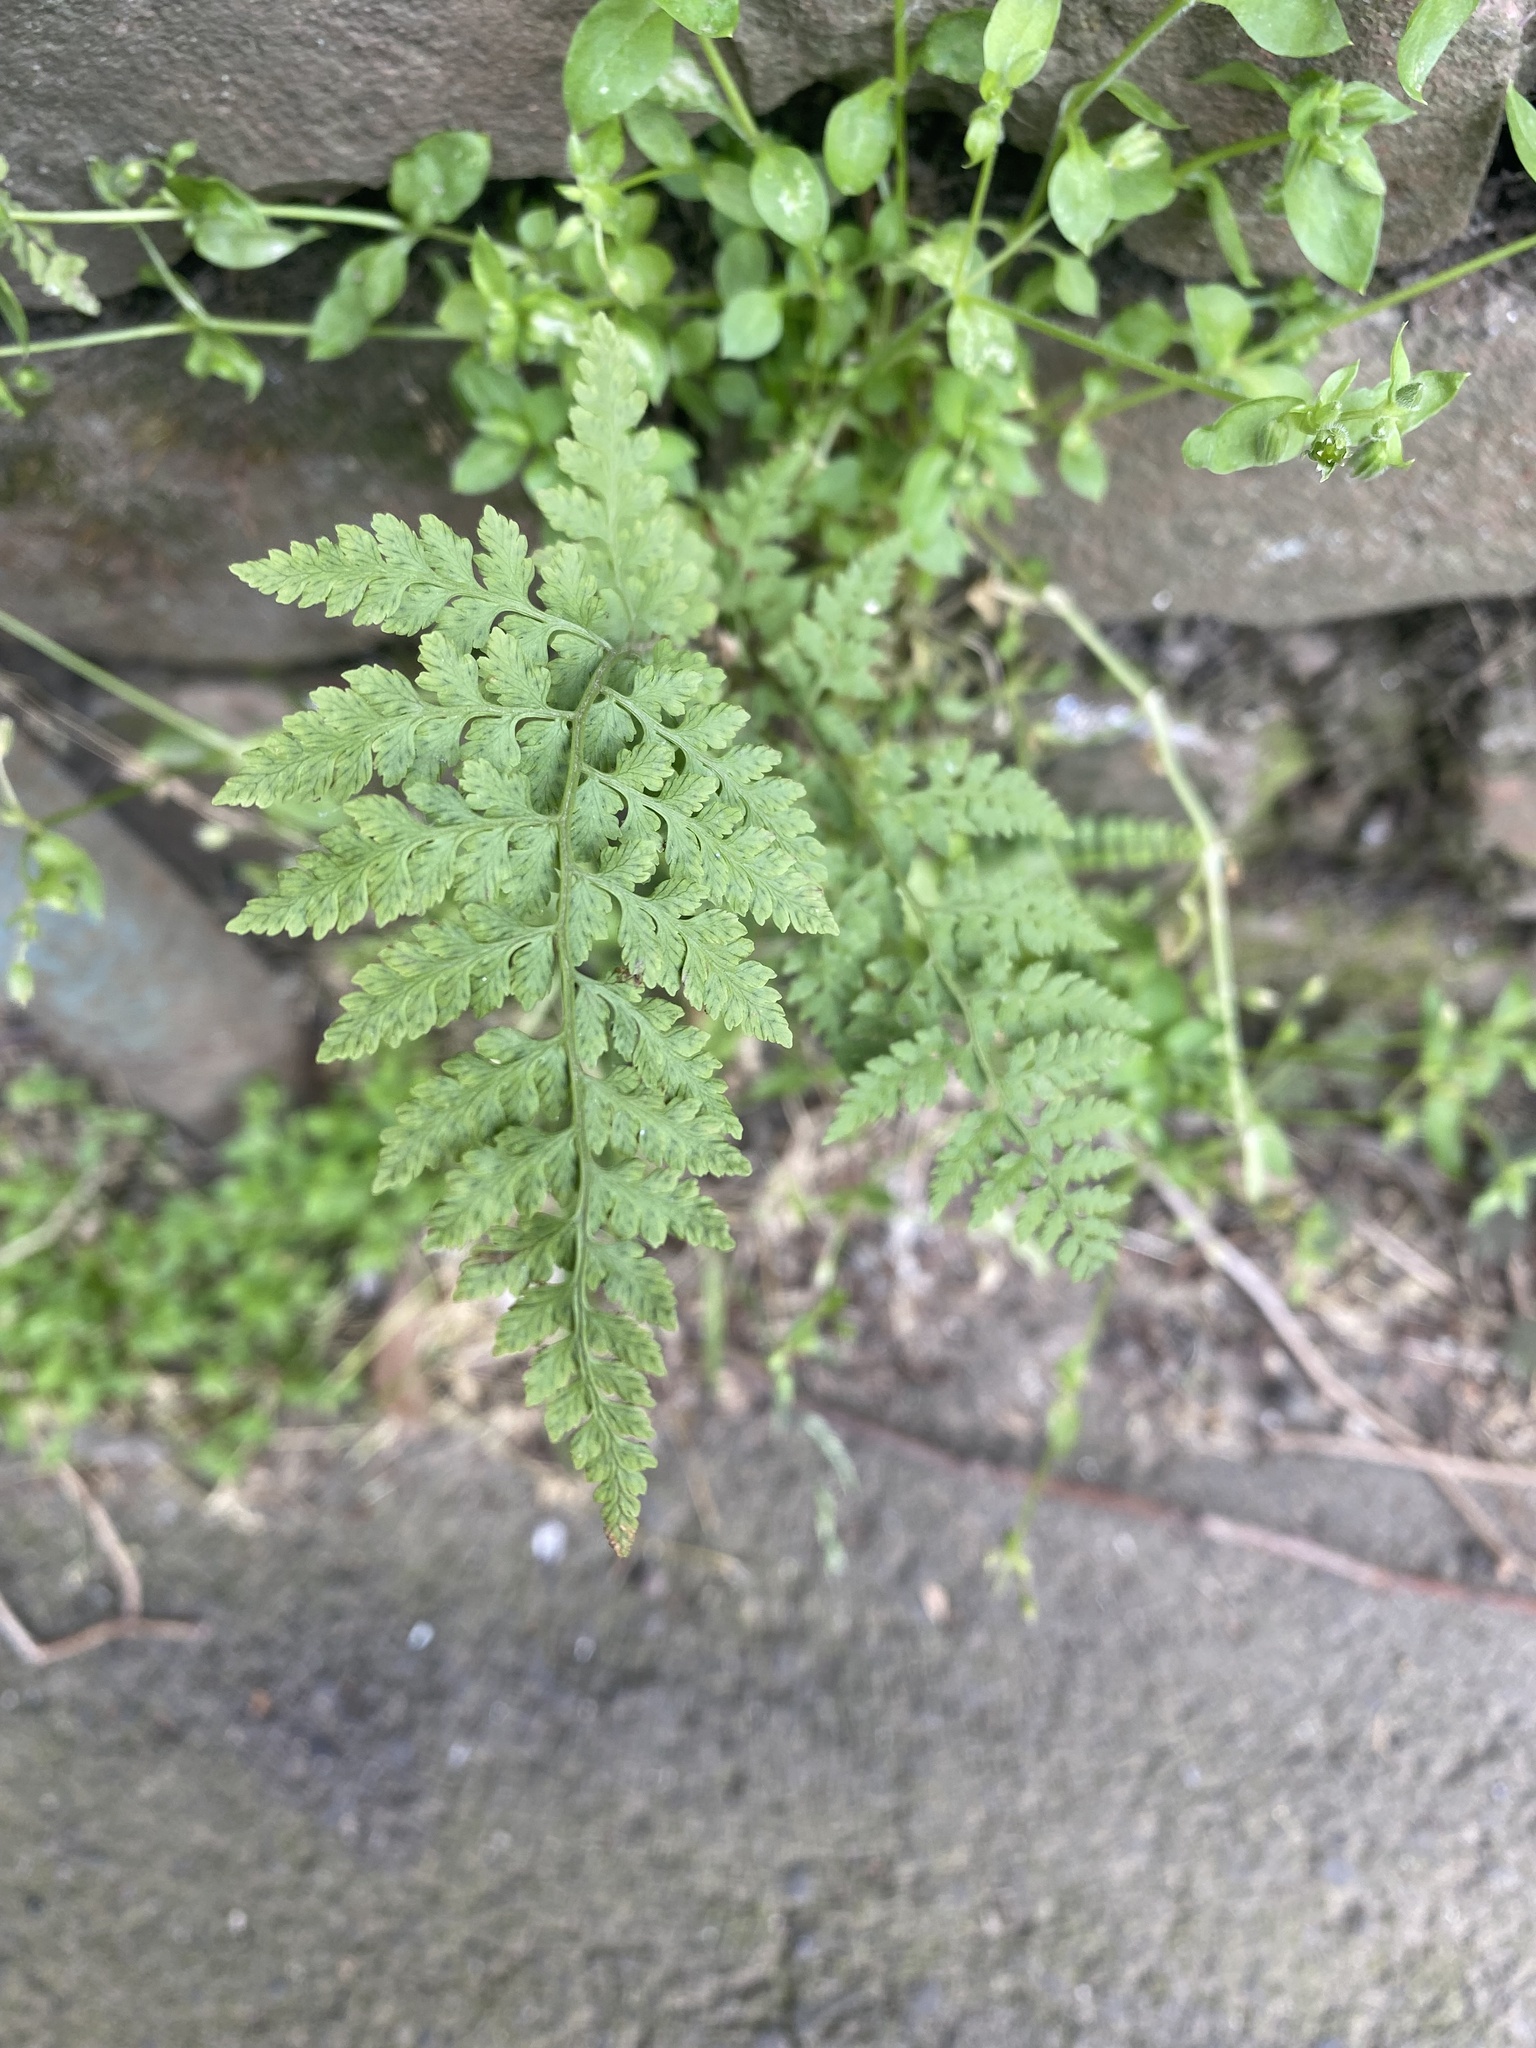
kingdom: Plantae
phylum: Tracheophyta
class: Polypodiopsida
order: Polypodiales
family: Cystopteridaceae
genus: Cystopteris
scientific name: Cystopteris fragilis
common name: Brittle bladder fern
